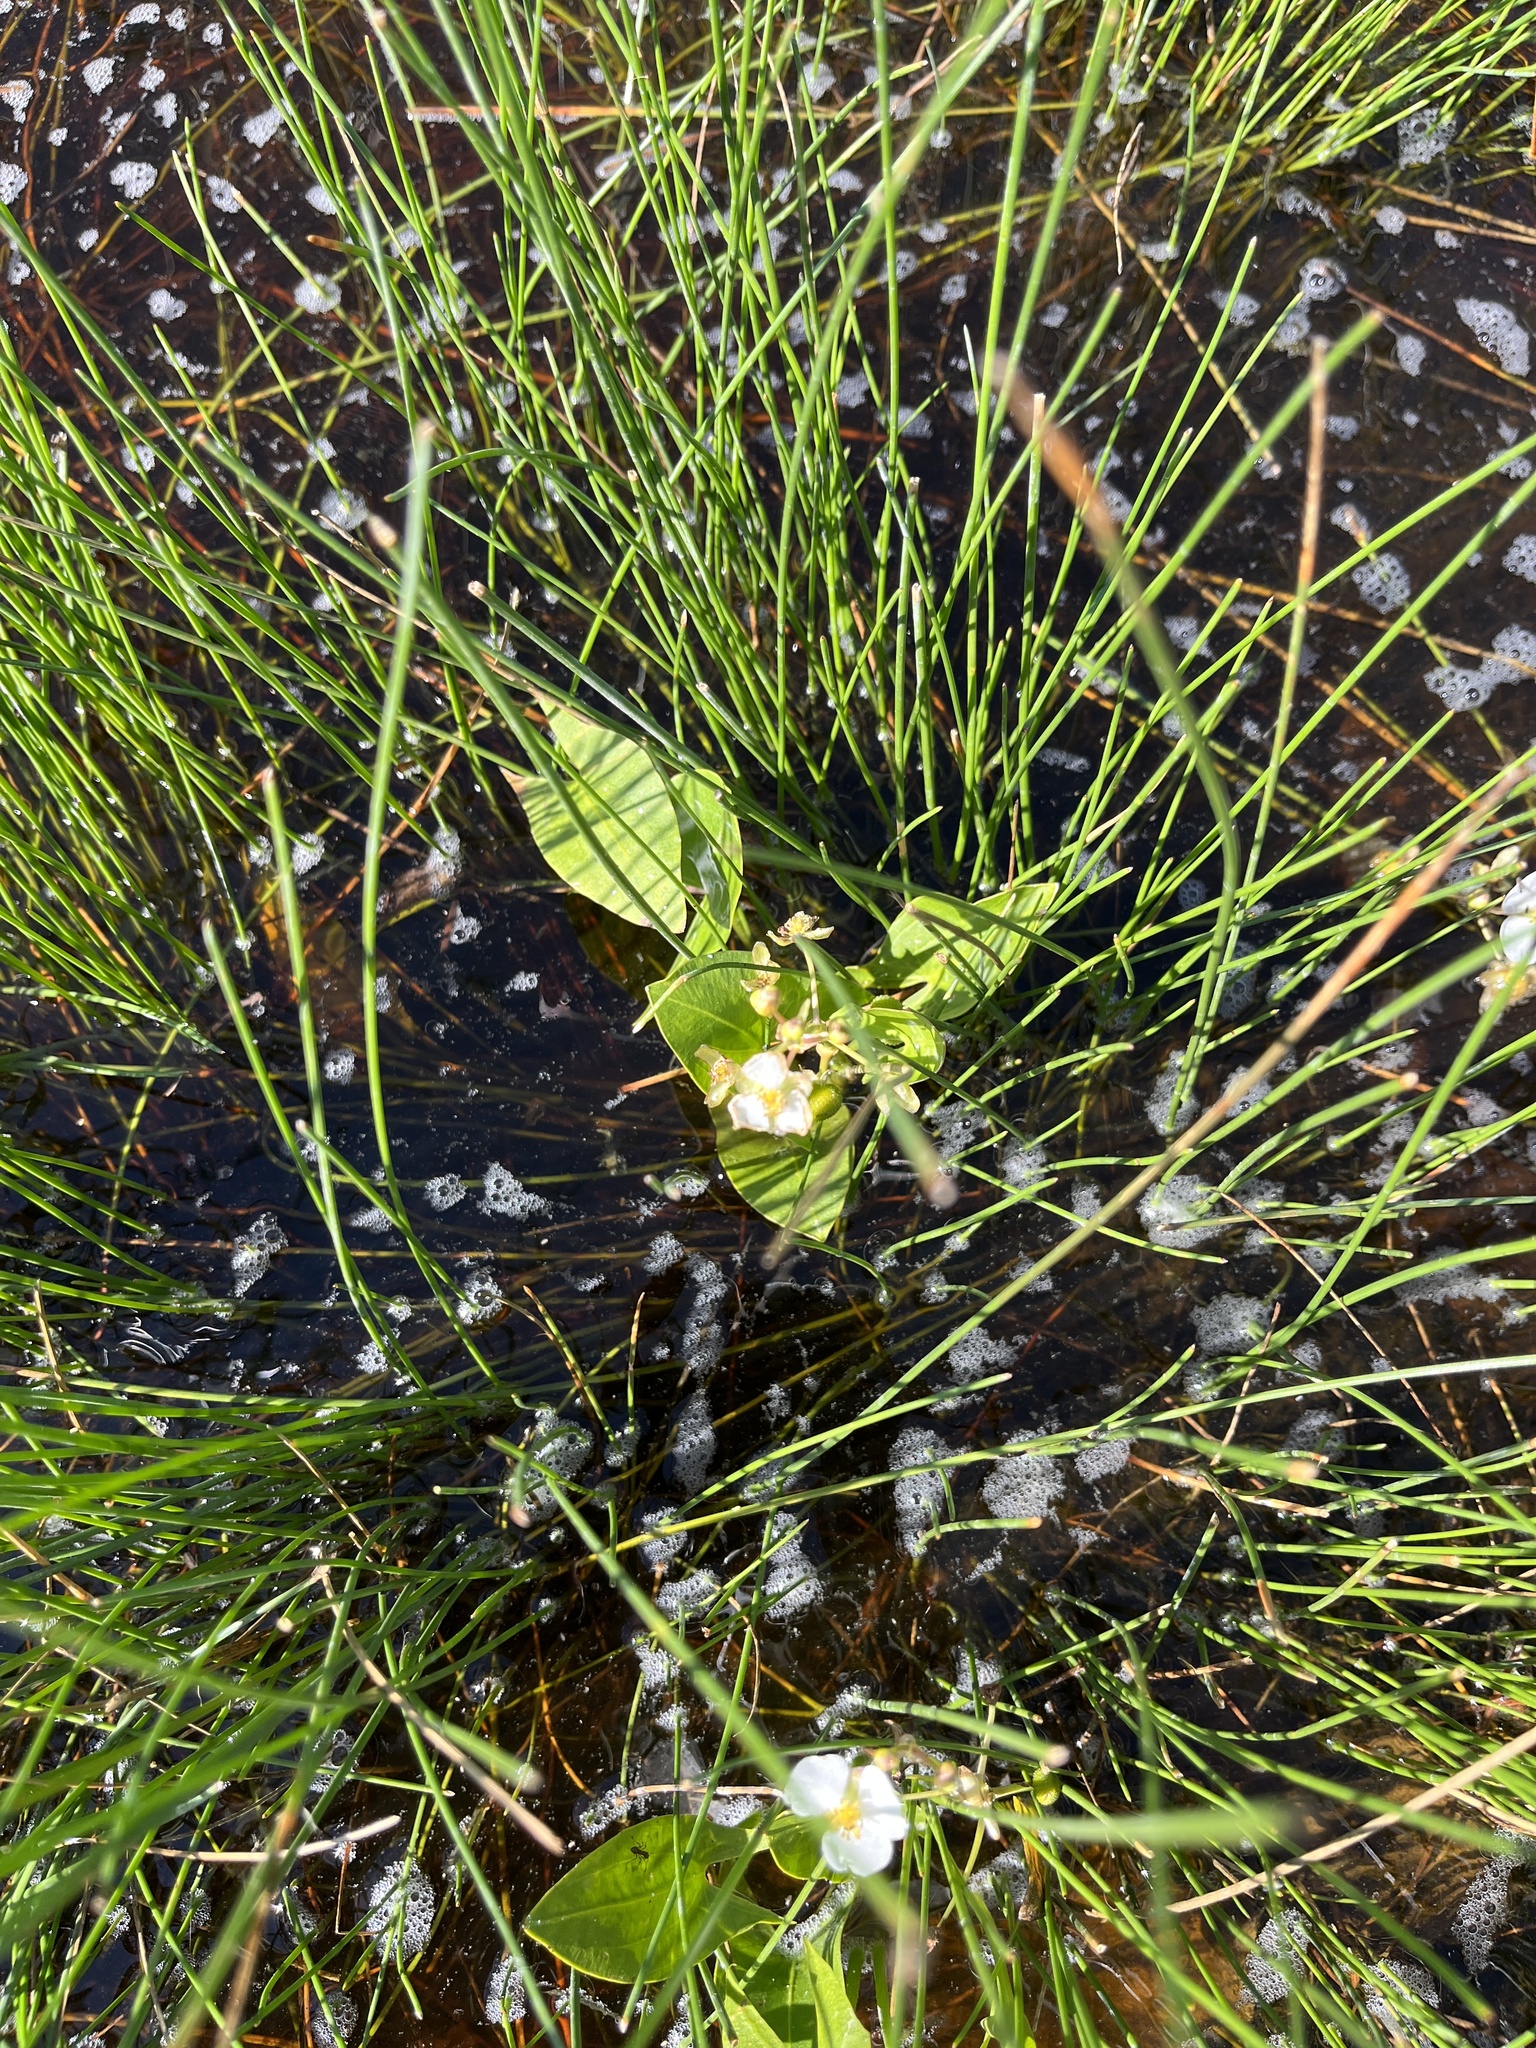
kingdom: Plantae
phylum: Tracheophyta
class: Liliopsida
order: Alismatales
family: Alismataceae
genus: Sagittaria
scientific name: Sagittaria cuneata
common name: Northern arrowhead
